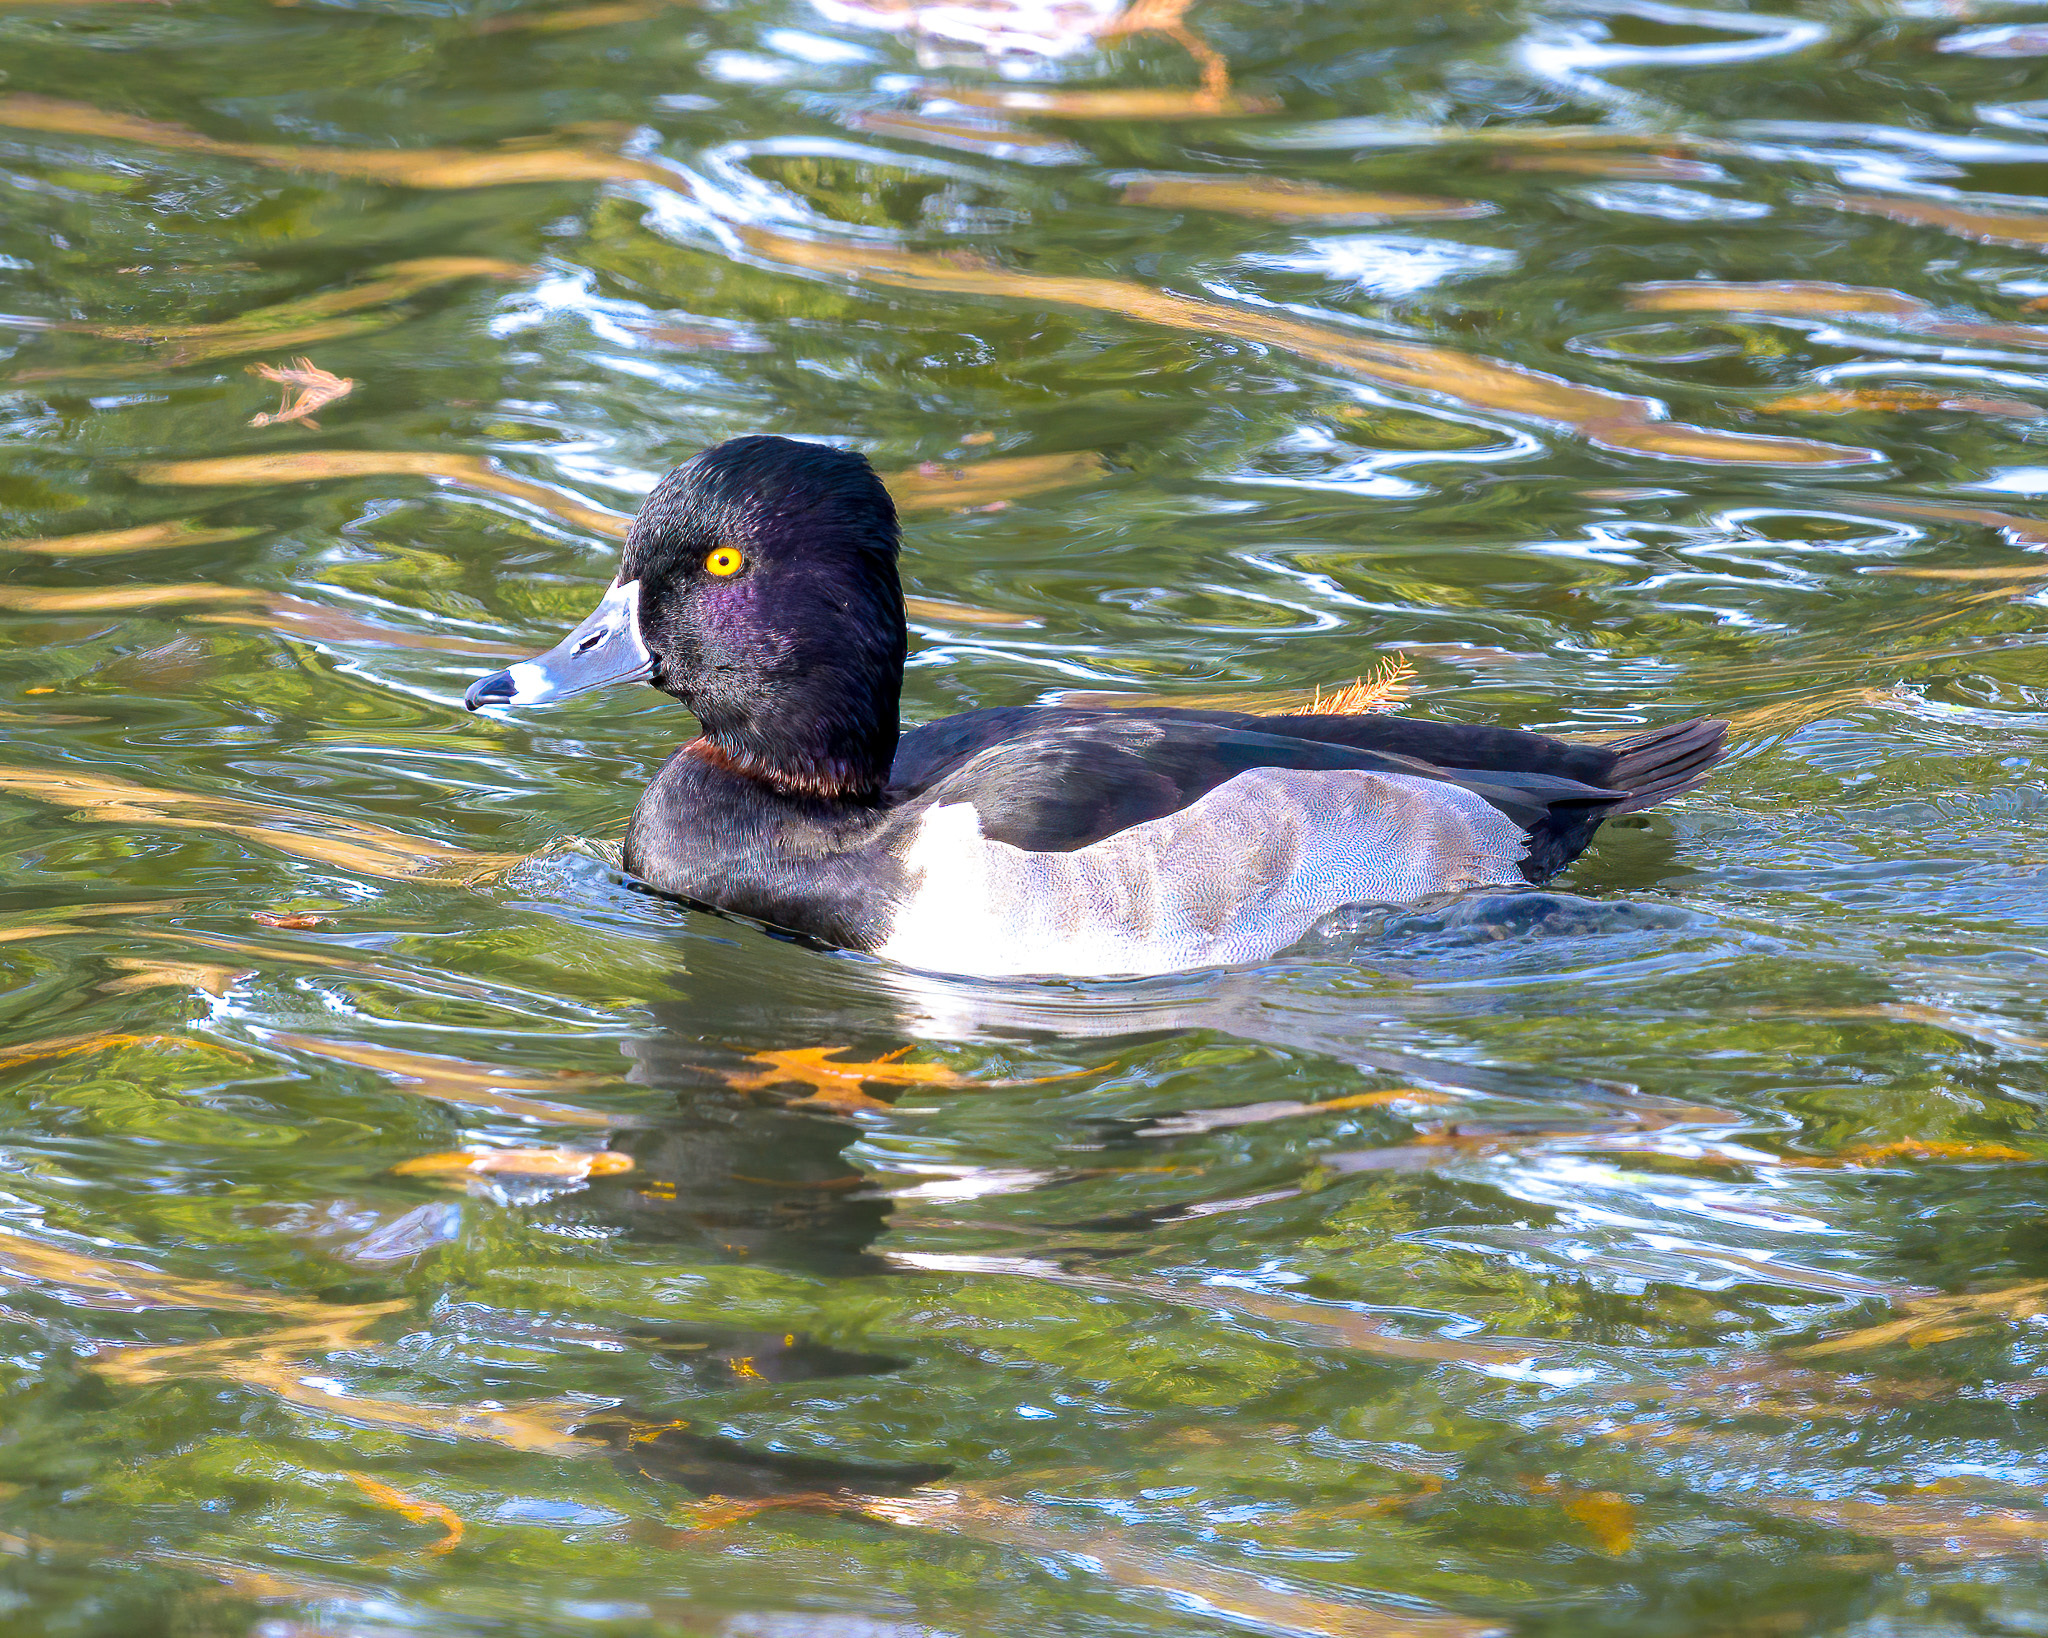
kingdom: Animalia
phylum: Chordata
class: Aves
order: Anseriformes
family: Anatidae
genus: Aythya
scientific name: Aythya collaris
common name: Ring-necked duck
